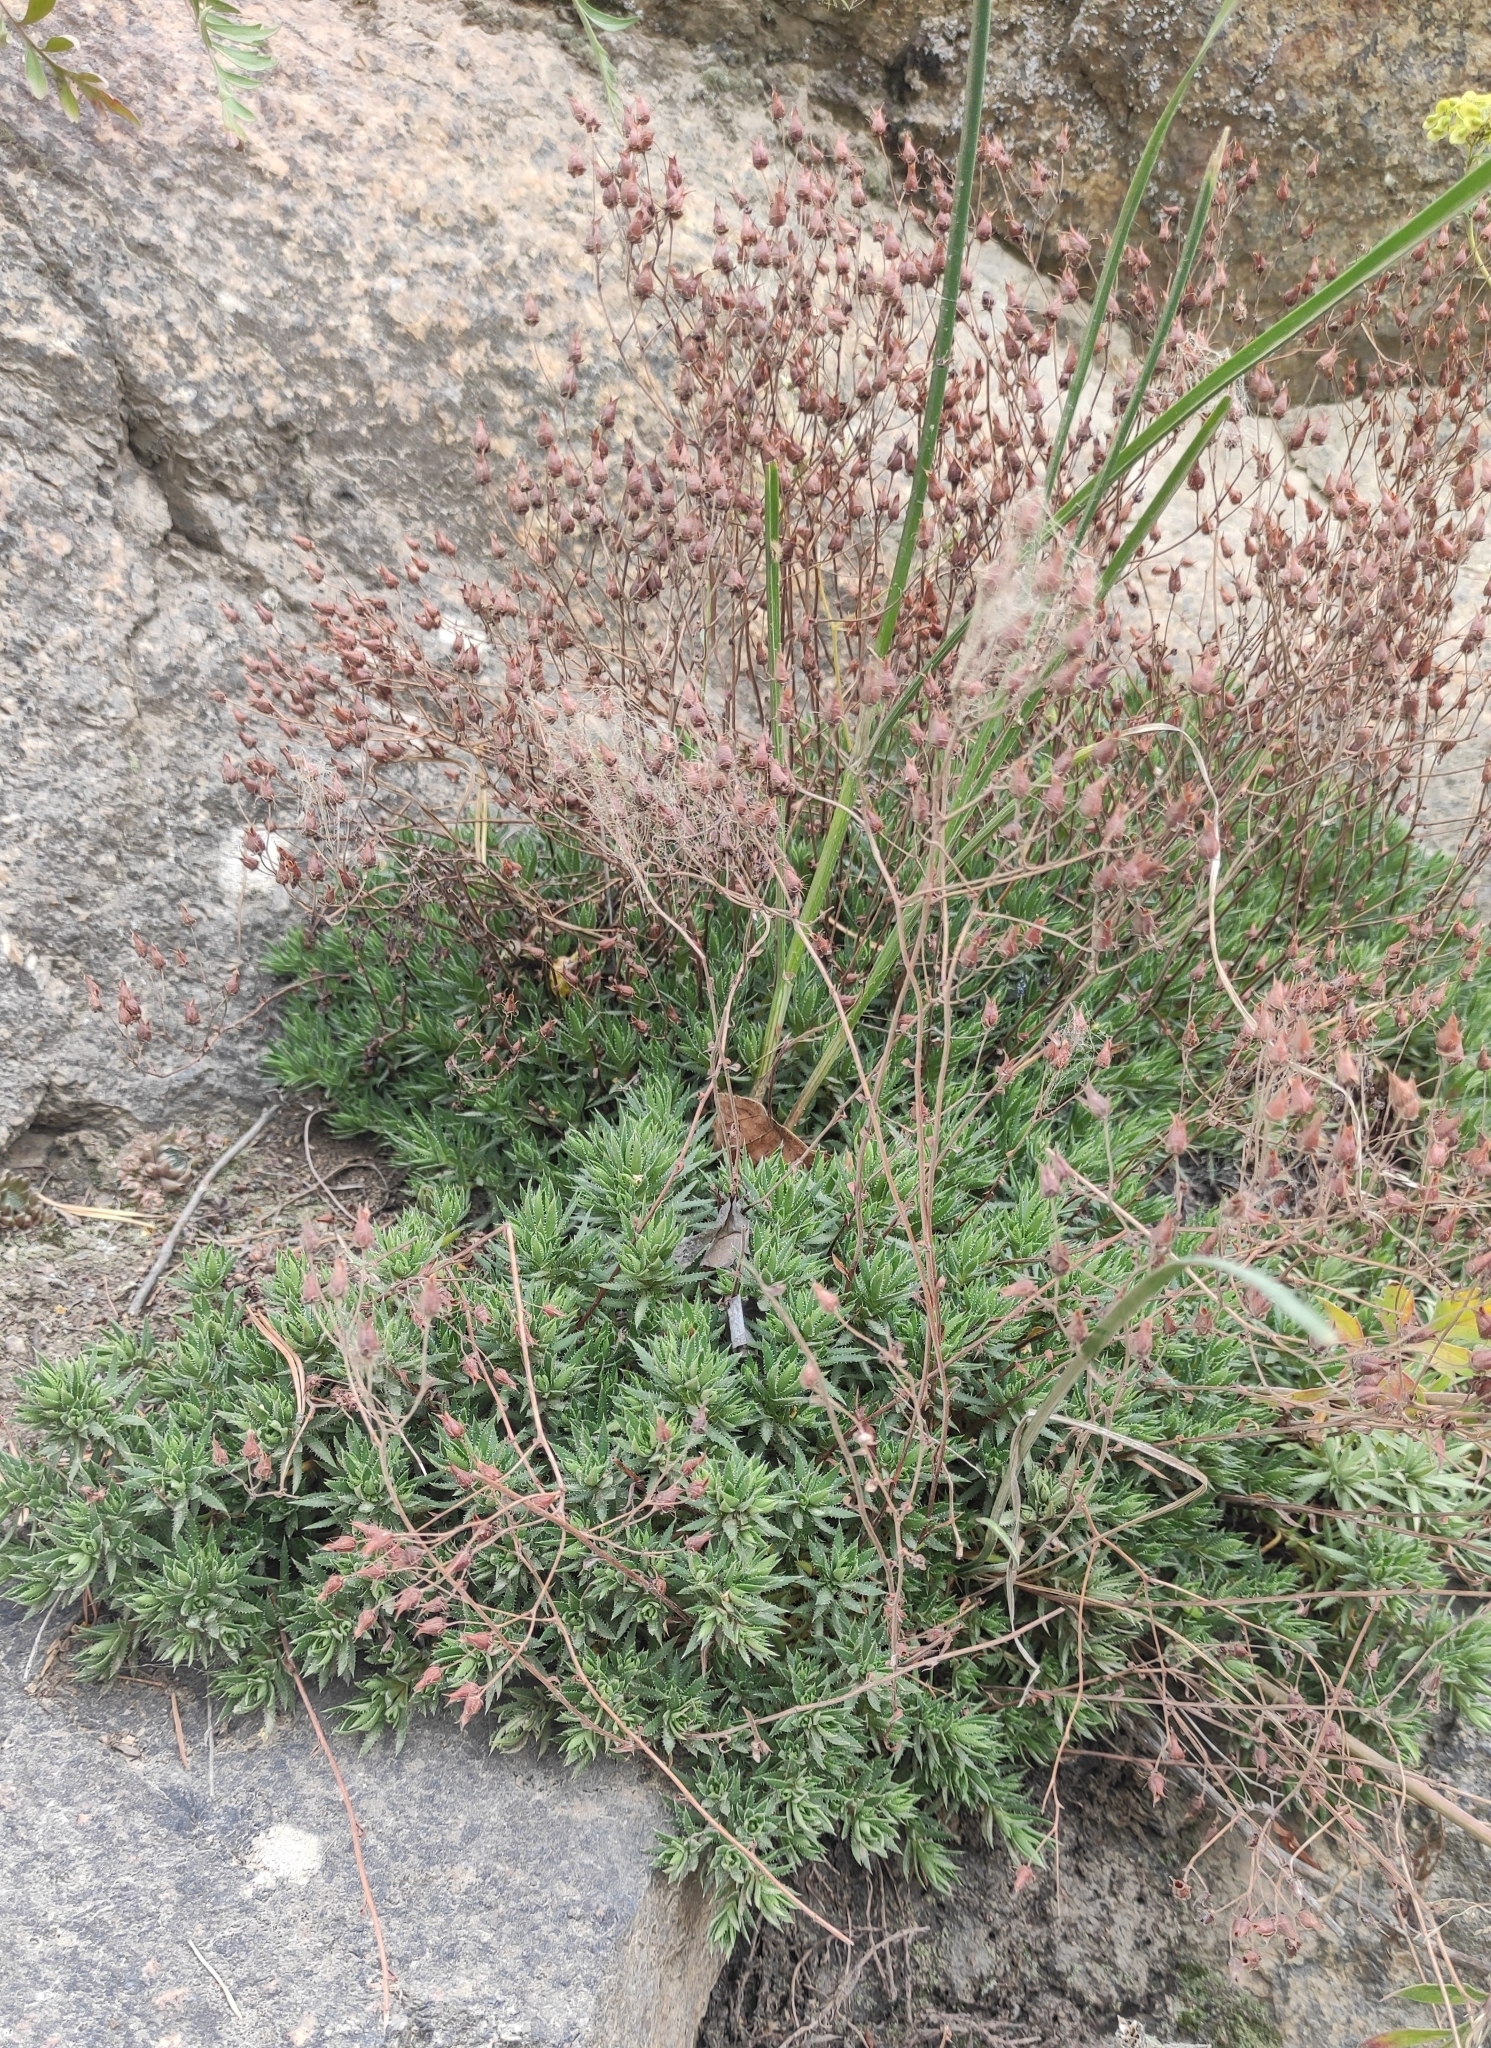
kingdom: Plantae
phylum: Tracheophyta
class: Magnoliopsida
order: Saxifragales
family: Saxifragaceae
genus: Saxifraga
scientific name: Saxifraga
